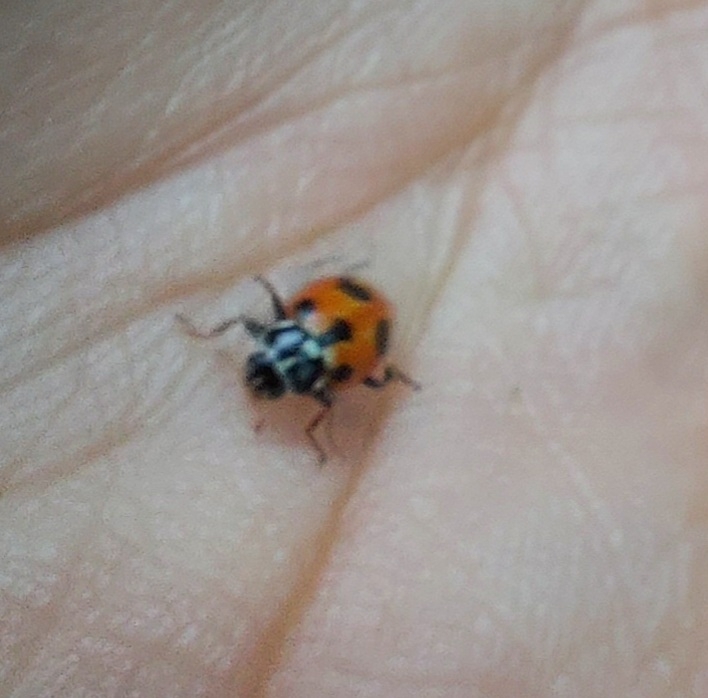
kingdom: Animalia
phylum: Arthropoda
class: Insecta
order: Coleoptera
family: Coccinellidae
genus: Hippodamia
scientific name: Hippodamia parenthesis
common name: Parenthesis lady beetle
